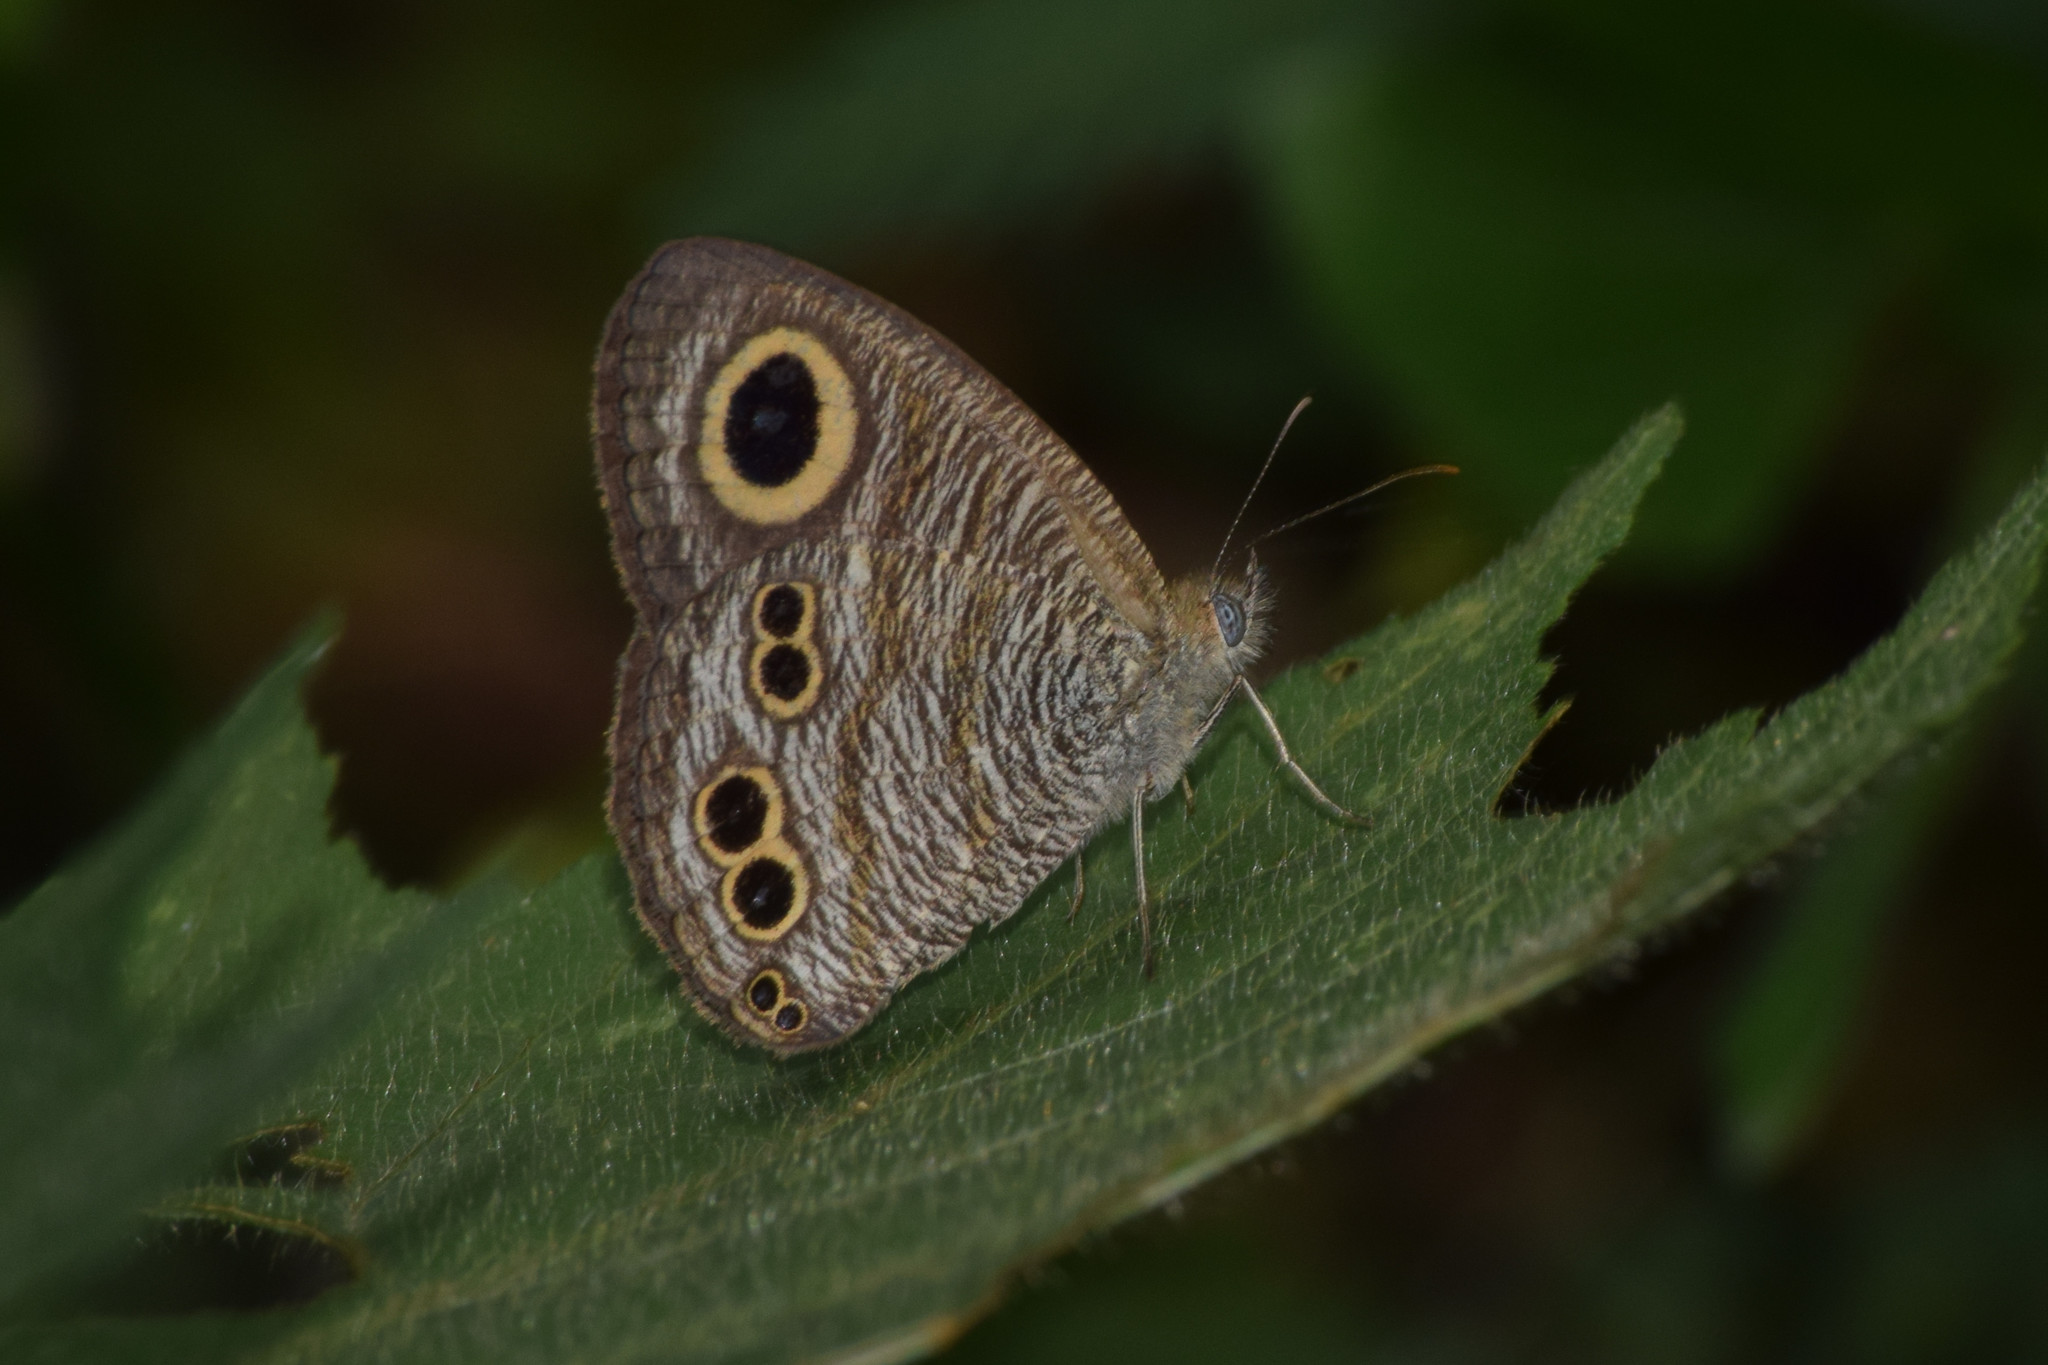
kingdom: Animalia
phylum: Arthropoda
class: Insecta
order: Lepidoptera
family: Nymphalidae
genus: Ypthima
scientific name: Ypthima baldus
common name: Common five-ring
